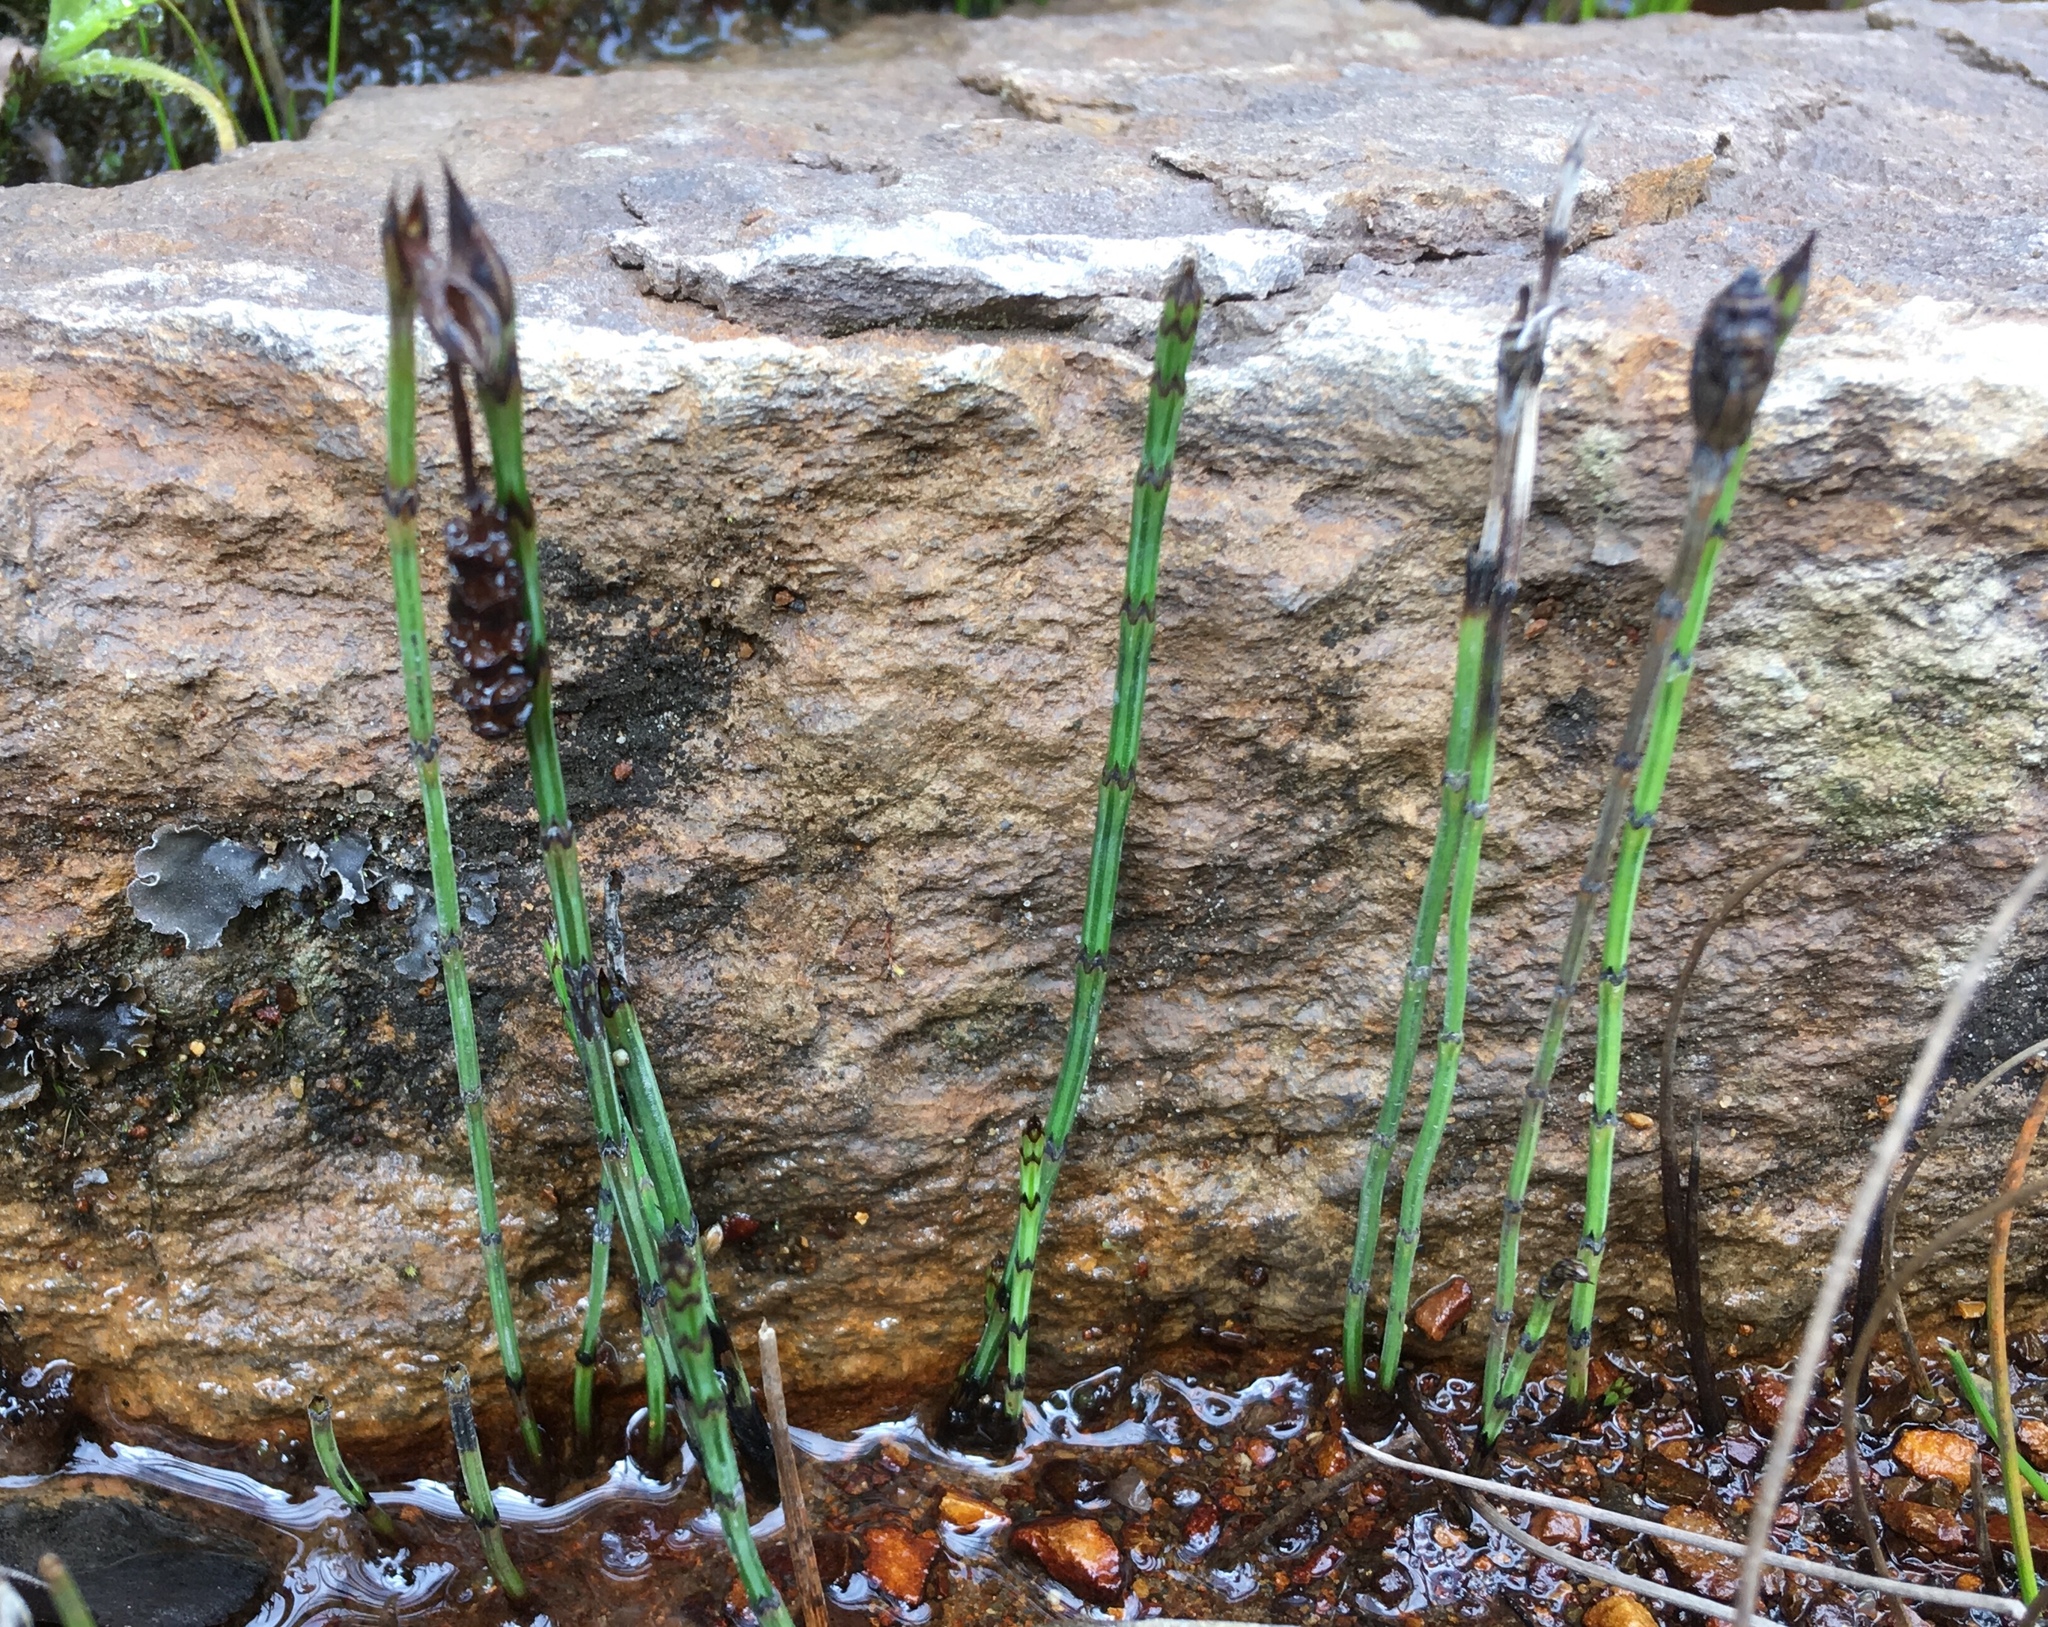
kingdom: Plantae
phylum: Tracheophyta
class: Polypodiopsida
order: Equisetales
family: Equisetaceae
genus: Equisetum
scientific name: Equisetum bogotense
